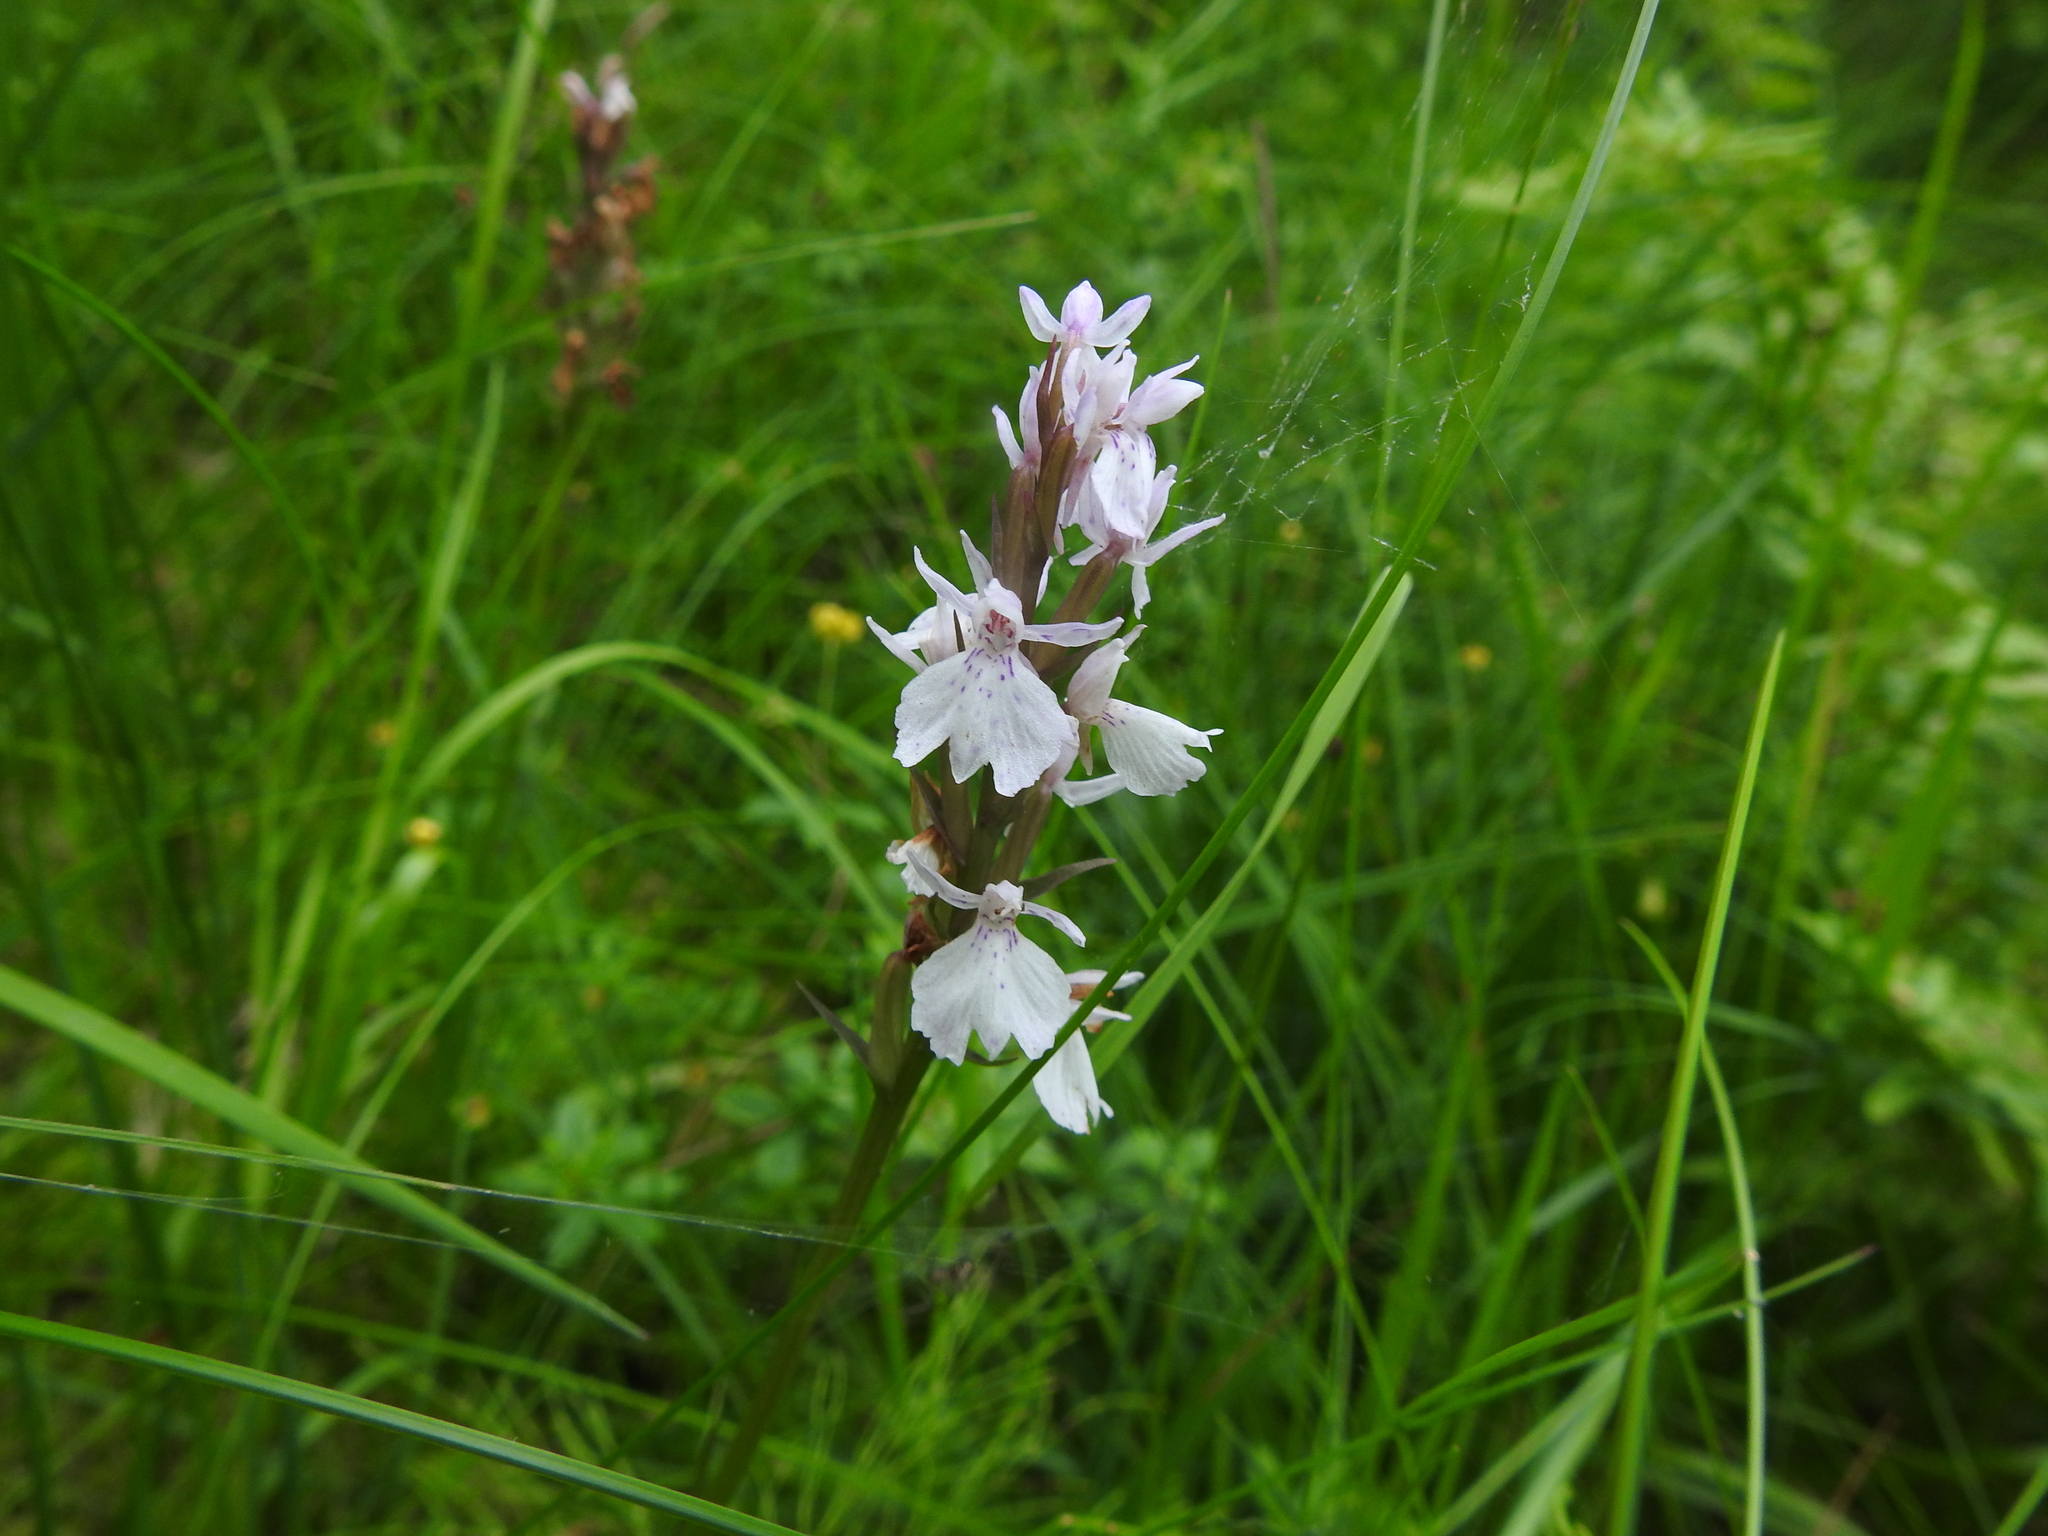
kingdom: Plantae
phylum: Tracheophyta
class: Liliopsida
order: Asparagales
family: Orchidaceae
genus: Dactylorhiza
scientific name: Dactylorhiza maculata
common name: Heath spotted-orchid
